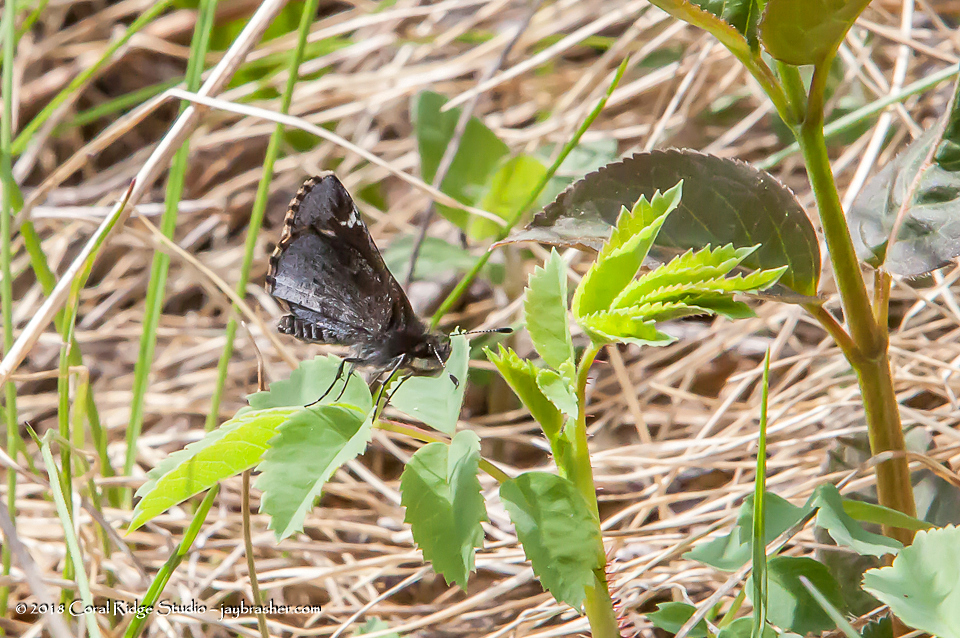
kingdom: Animalia
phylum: Arthropoda
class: Insecta
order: Lepidoptera
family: Hesperiidae
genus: Mastor
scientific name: Mastor vialis
